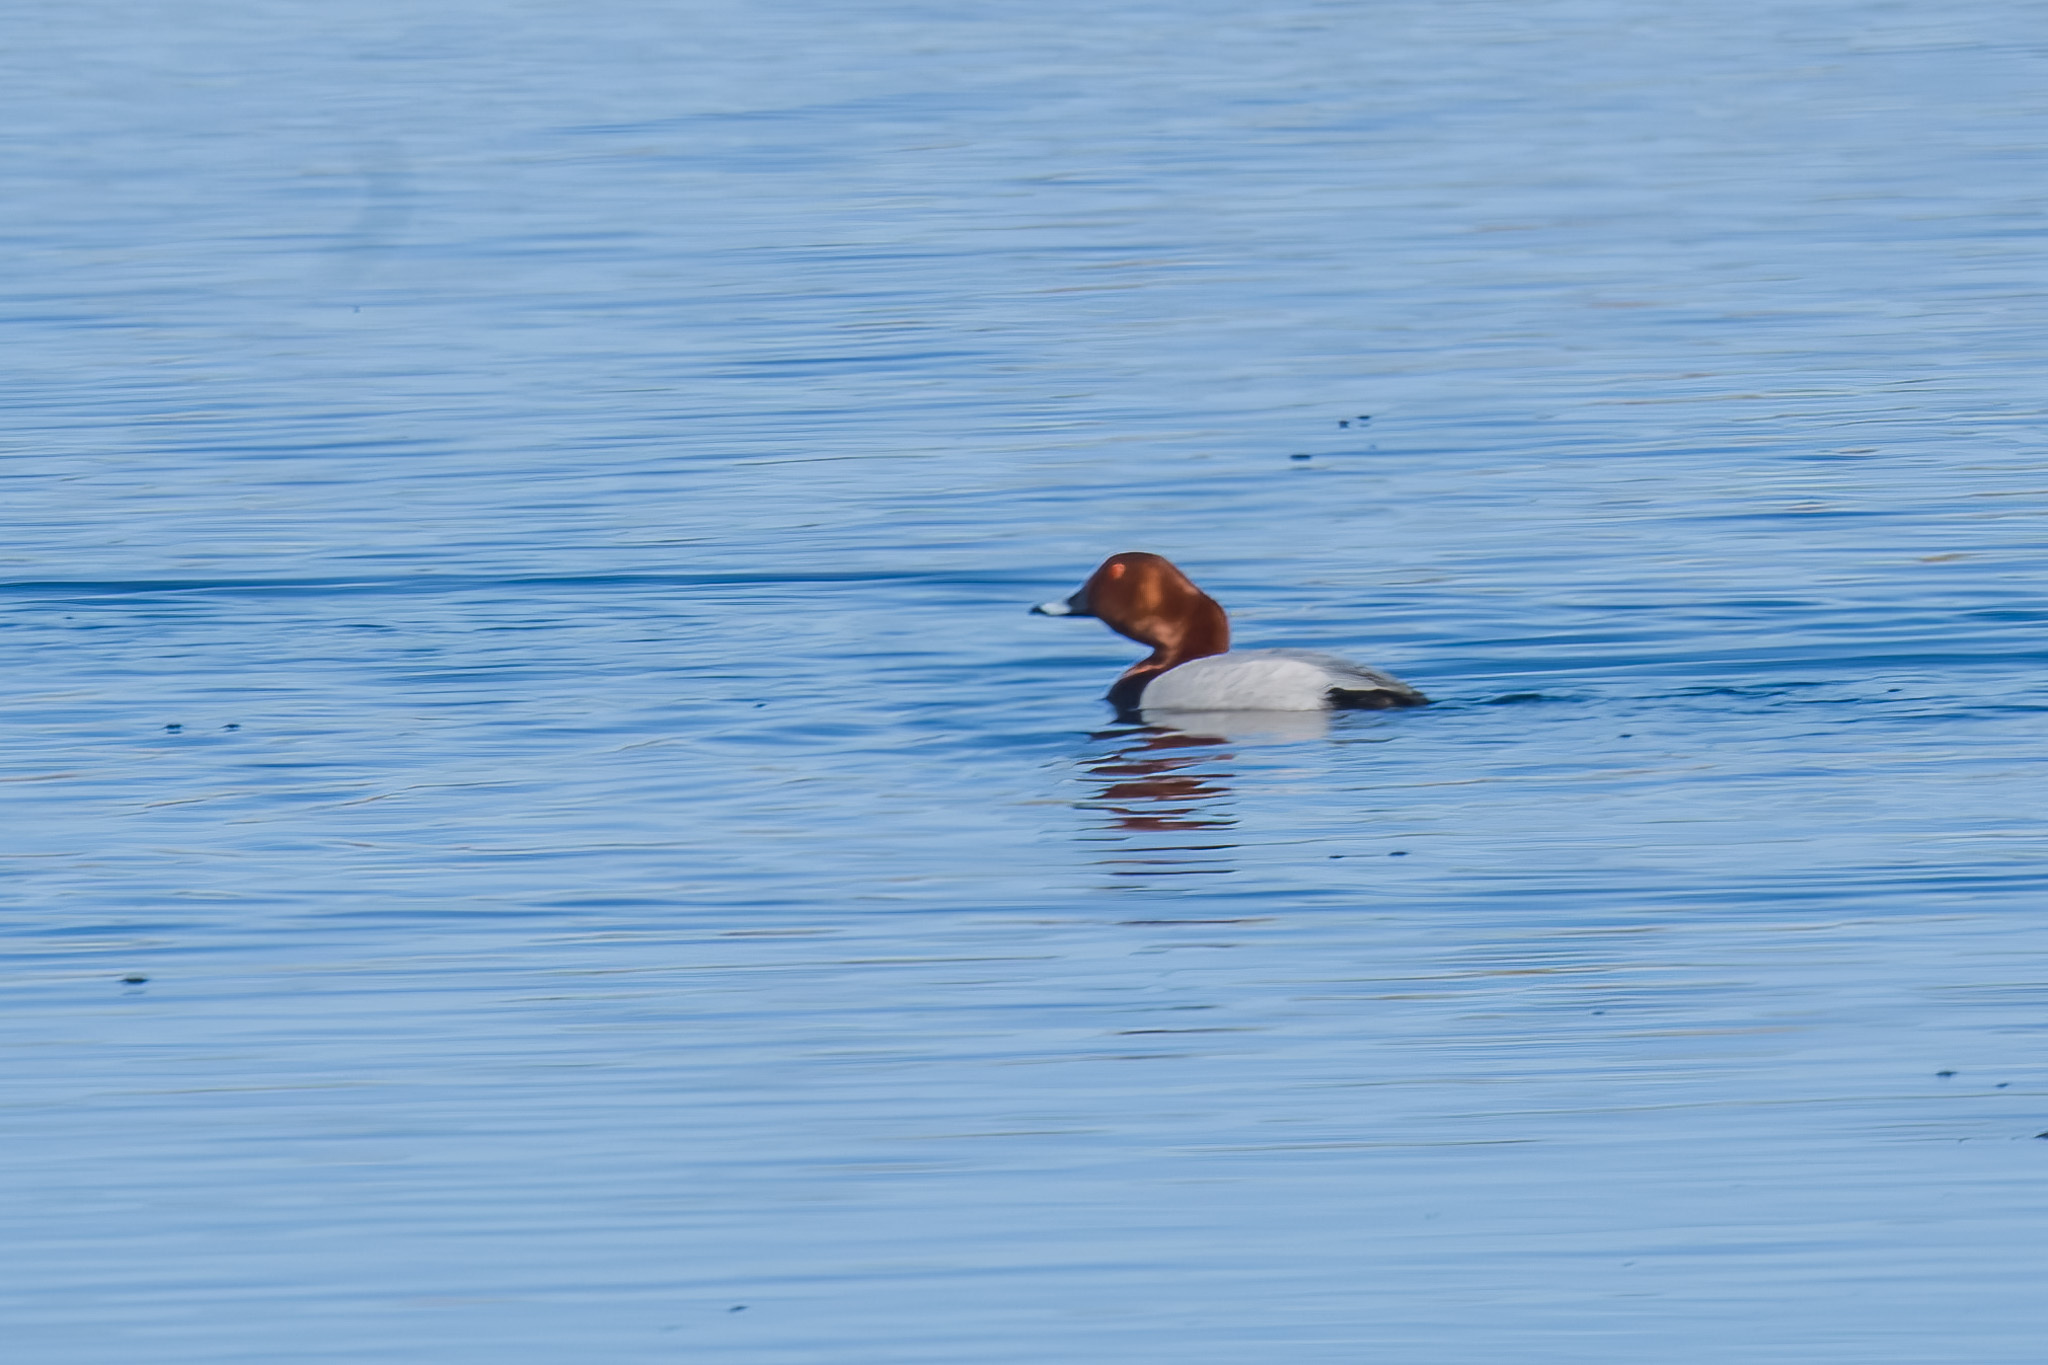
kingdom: Animalia
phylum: Chordata
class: Aves
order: Anseriformes
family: Anatidae
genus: Aythya
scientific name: Aythya ferina
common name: Common pochard
